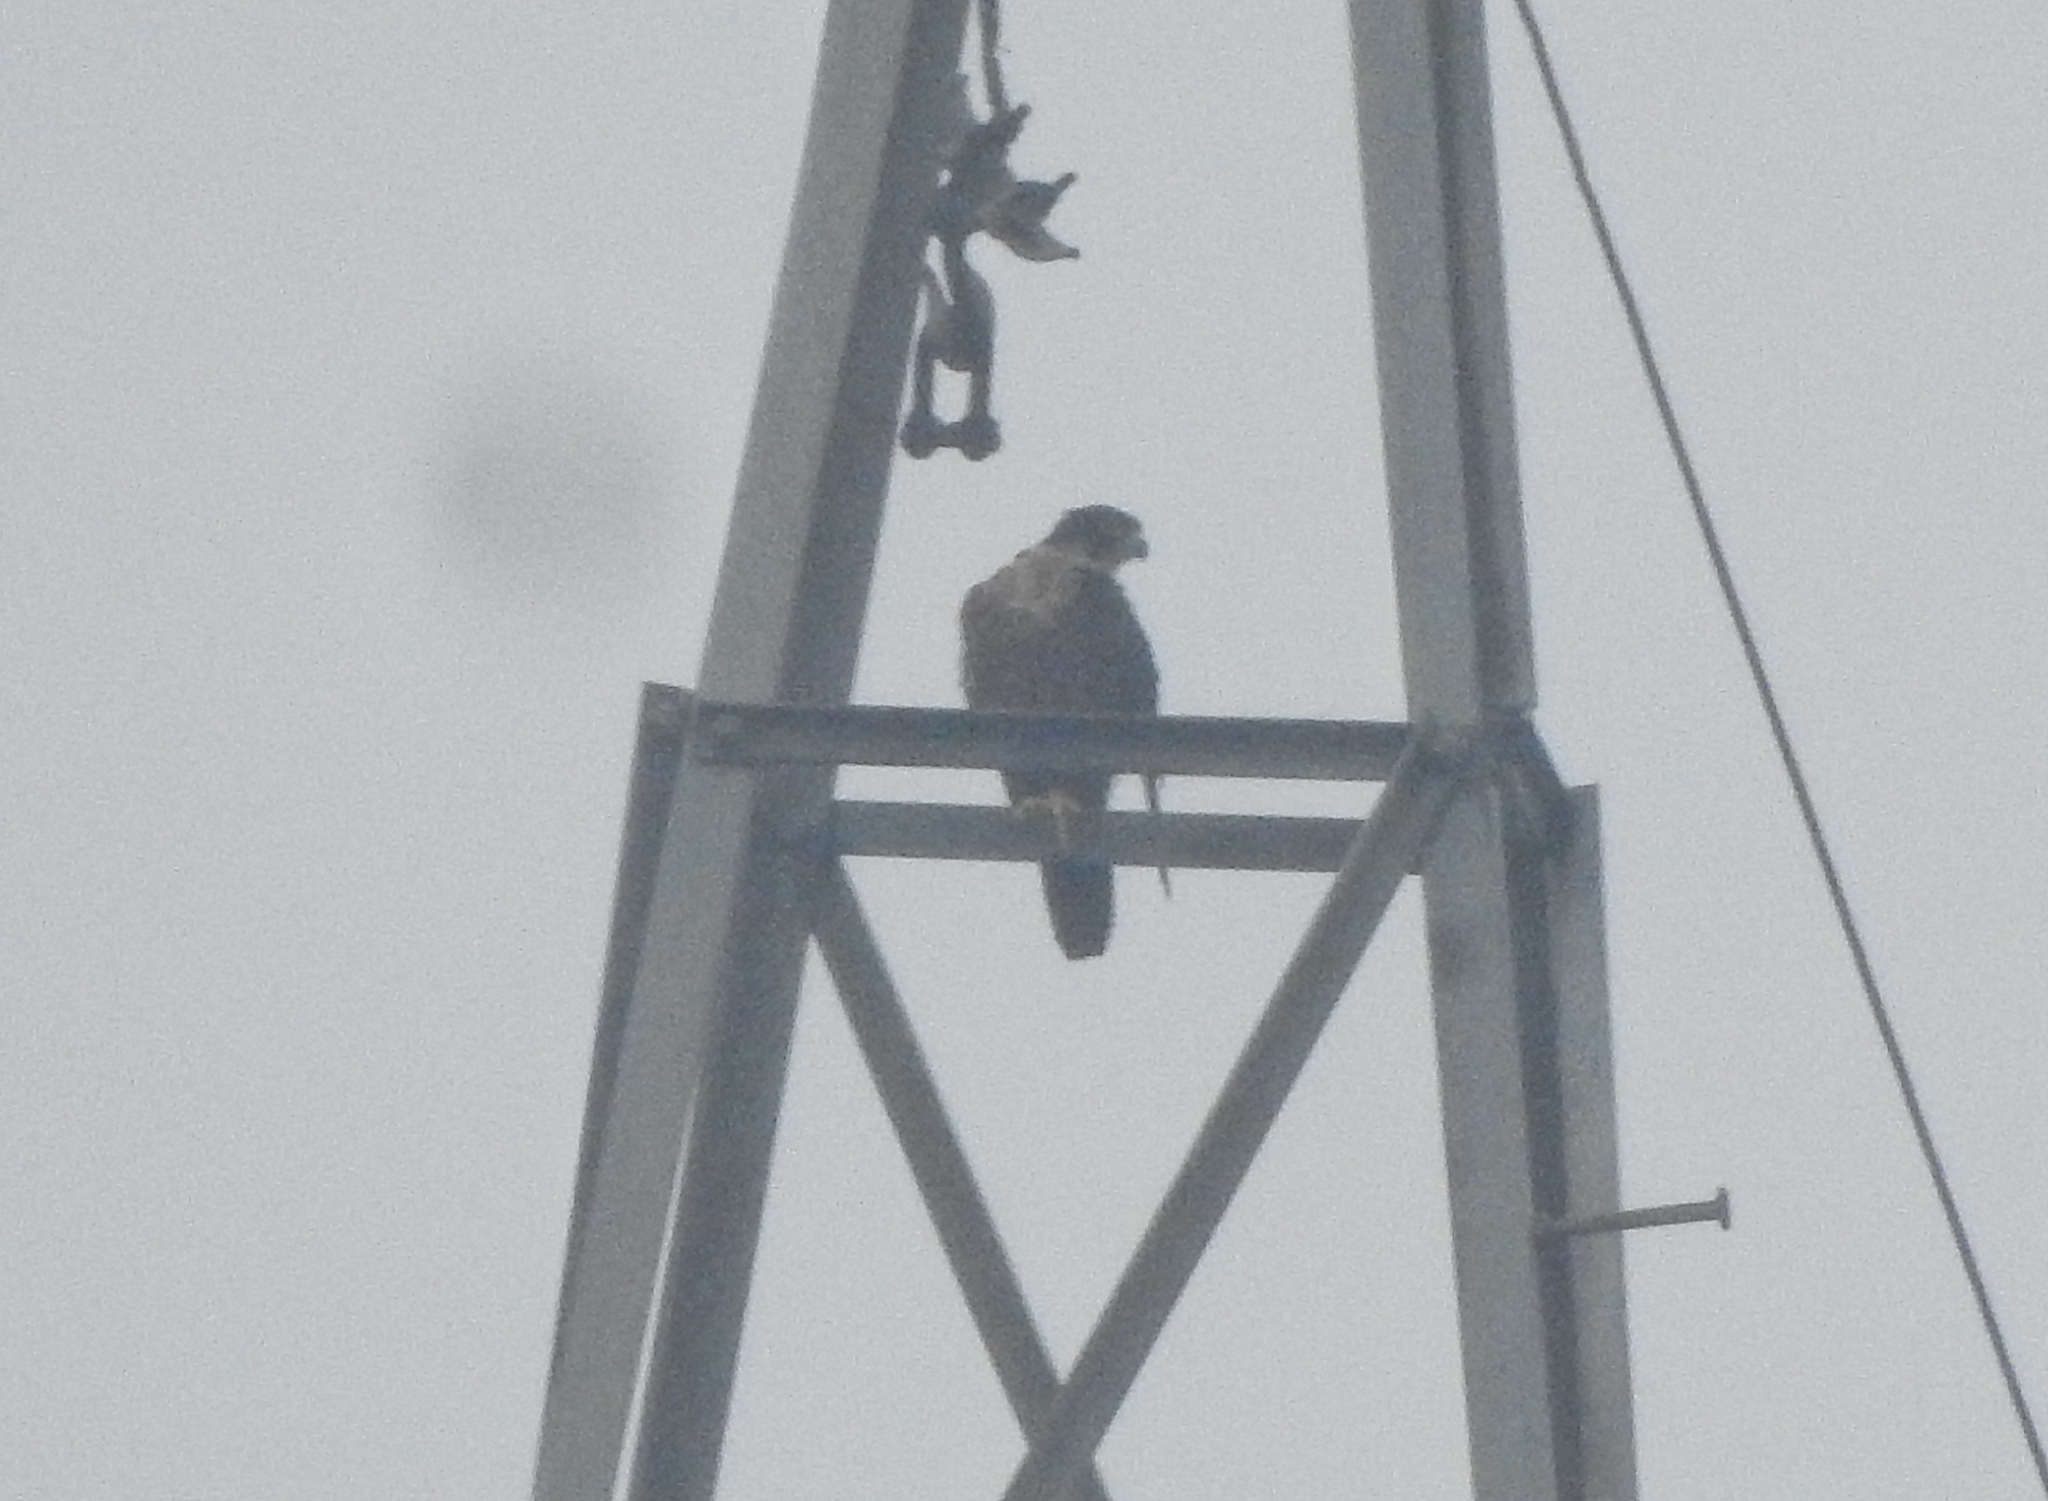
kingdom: Animalia
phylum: Chordata
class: Aves
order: Falconiformes
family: Falconidae
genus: Falco
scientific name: Falco peregrinus
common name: Peregrine falcon
